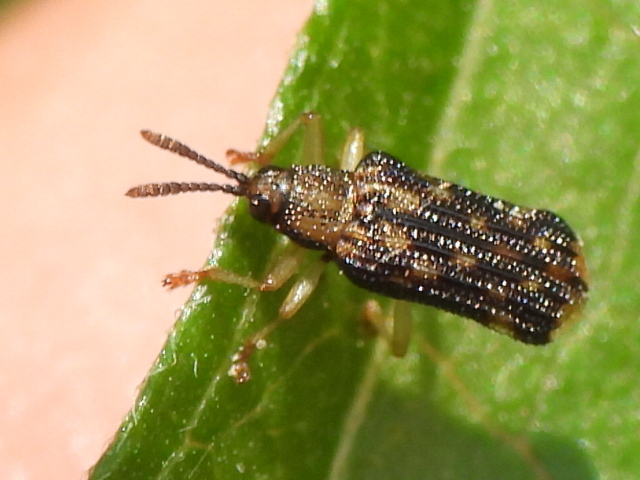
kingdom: Animalia
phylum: Arthropoda
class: Insecta
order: Coleoptera
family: Chrysomelidae
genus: Sumitrosis
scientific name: Sumitrosis inaequalis
